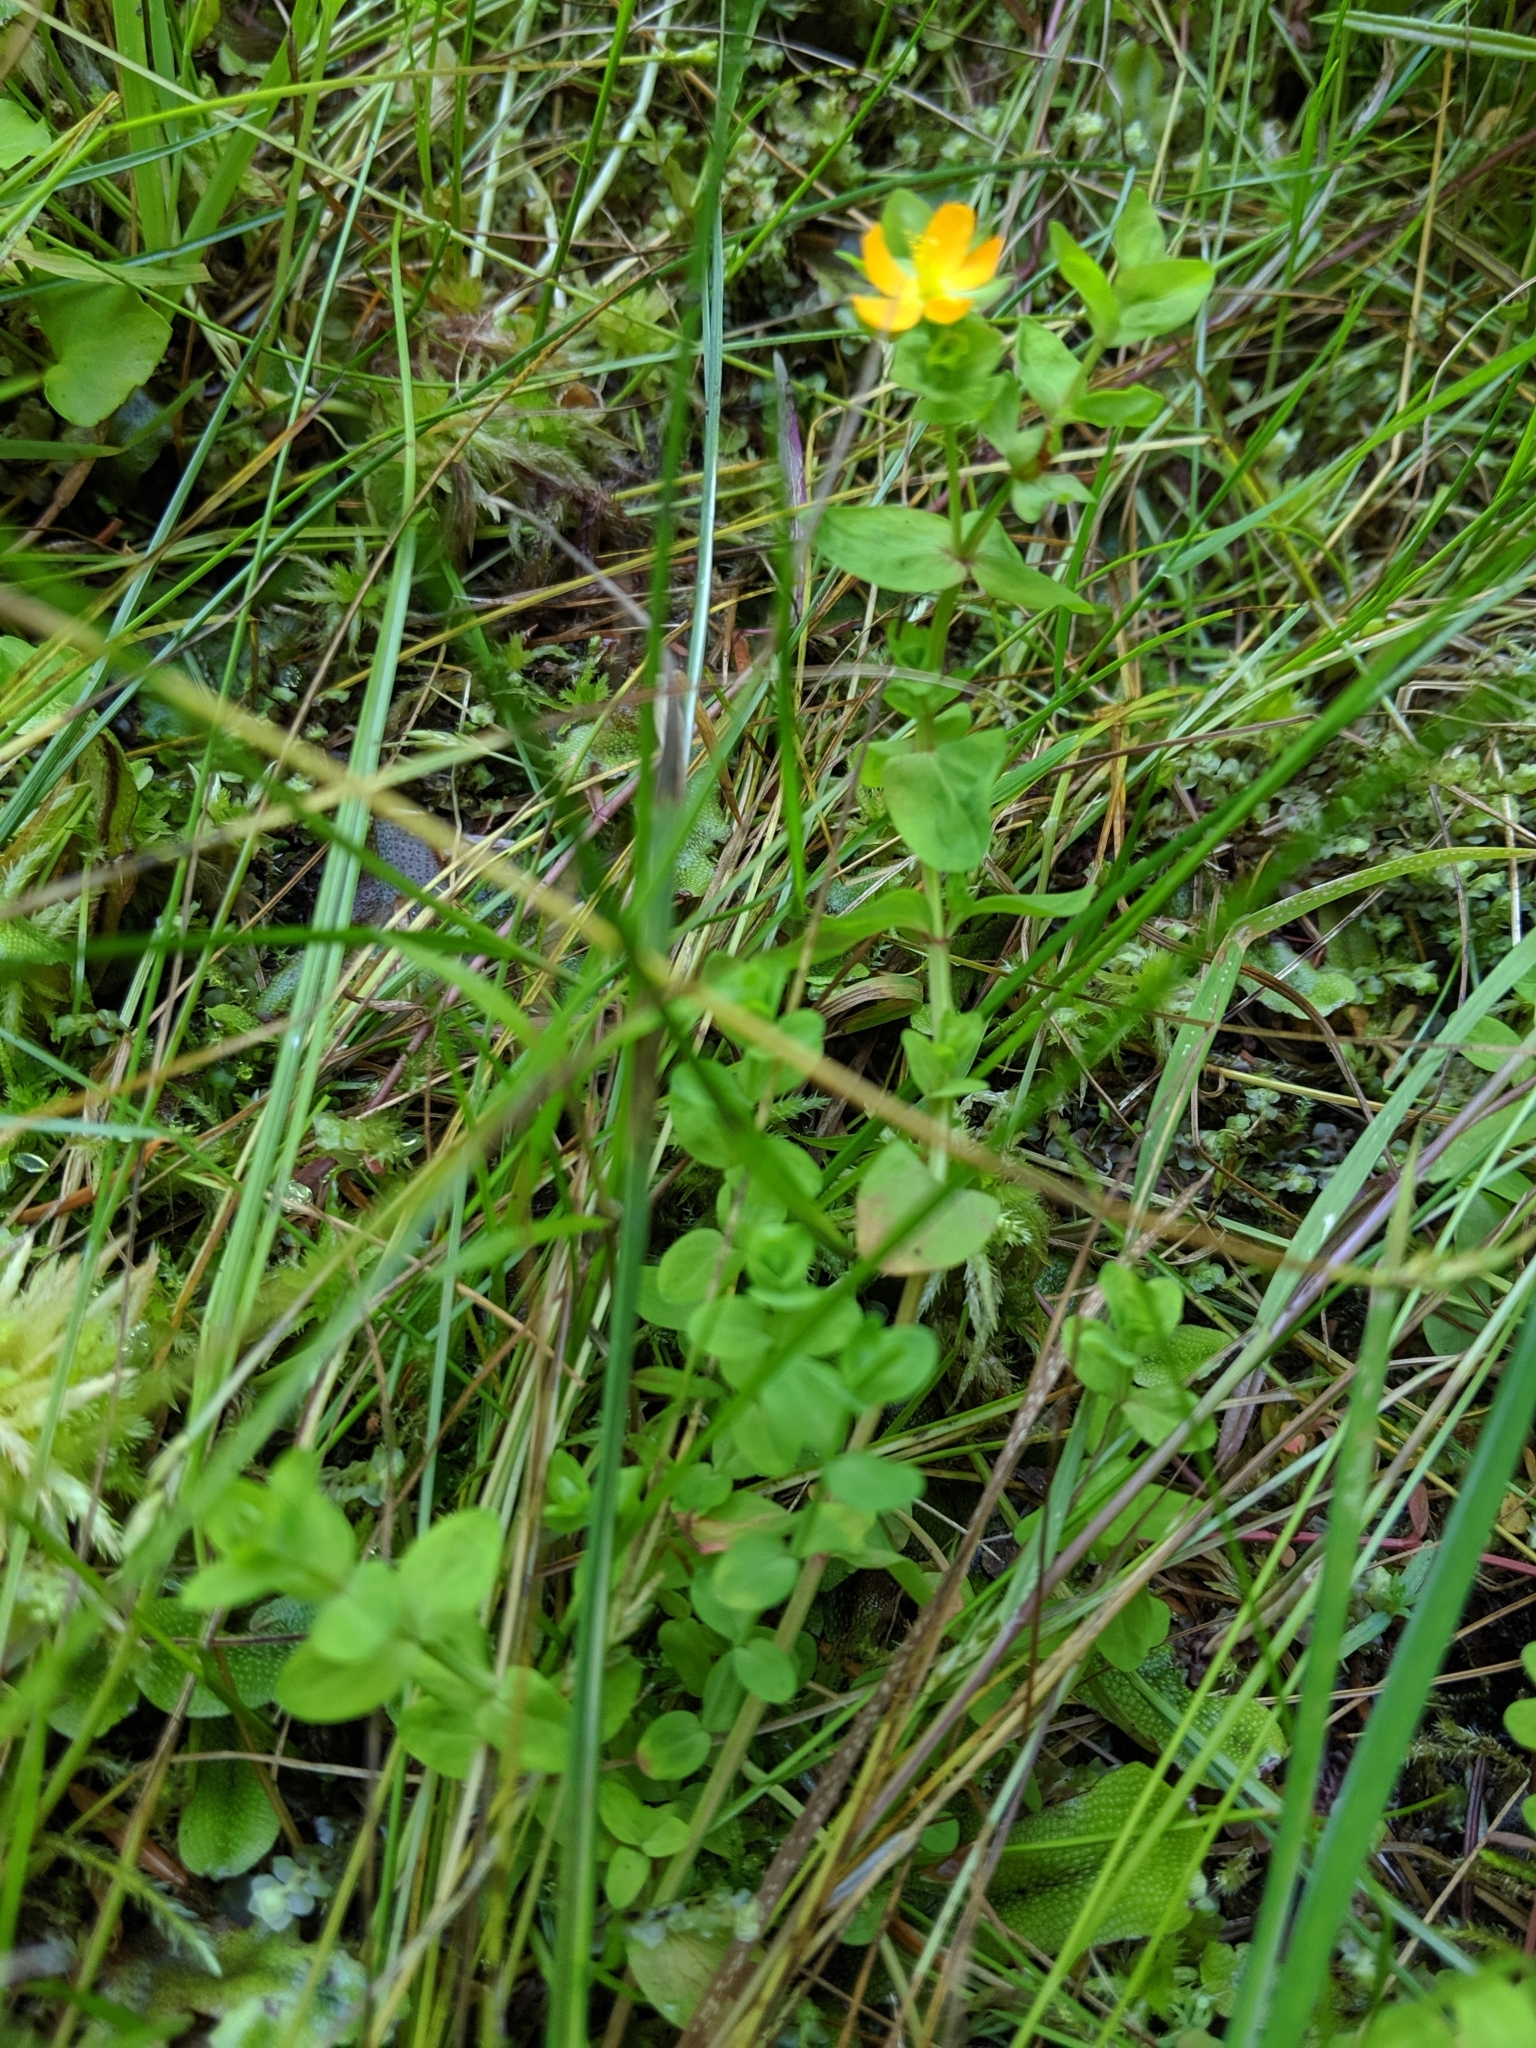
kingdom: Plantae
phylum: Tracheophyta
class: Magnoliopsida
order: Malpighiales
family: Hypericaceae
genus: Hypericum
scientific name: Hypericum anagalloides
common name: Bog st. john's-wort
